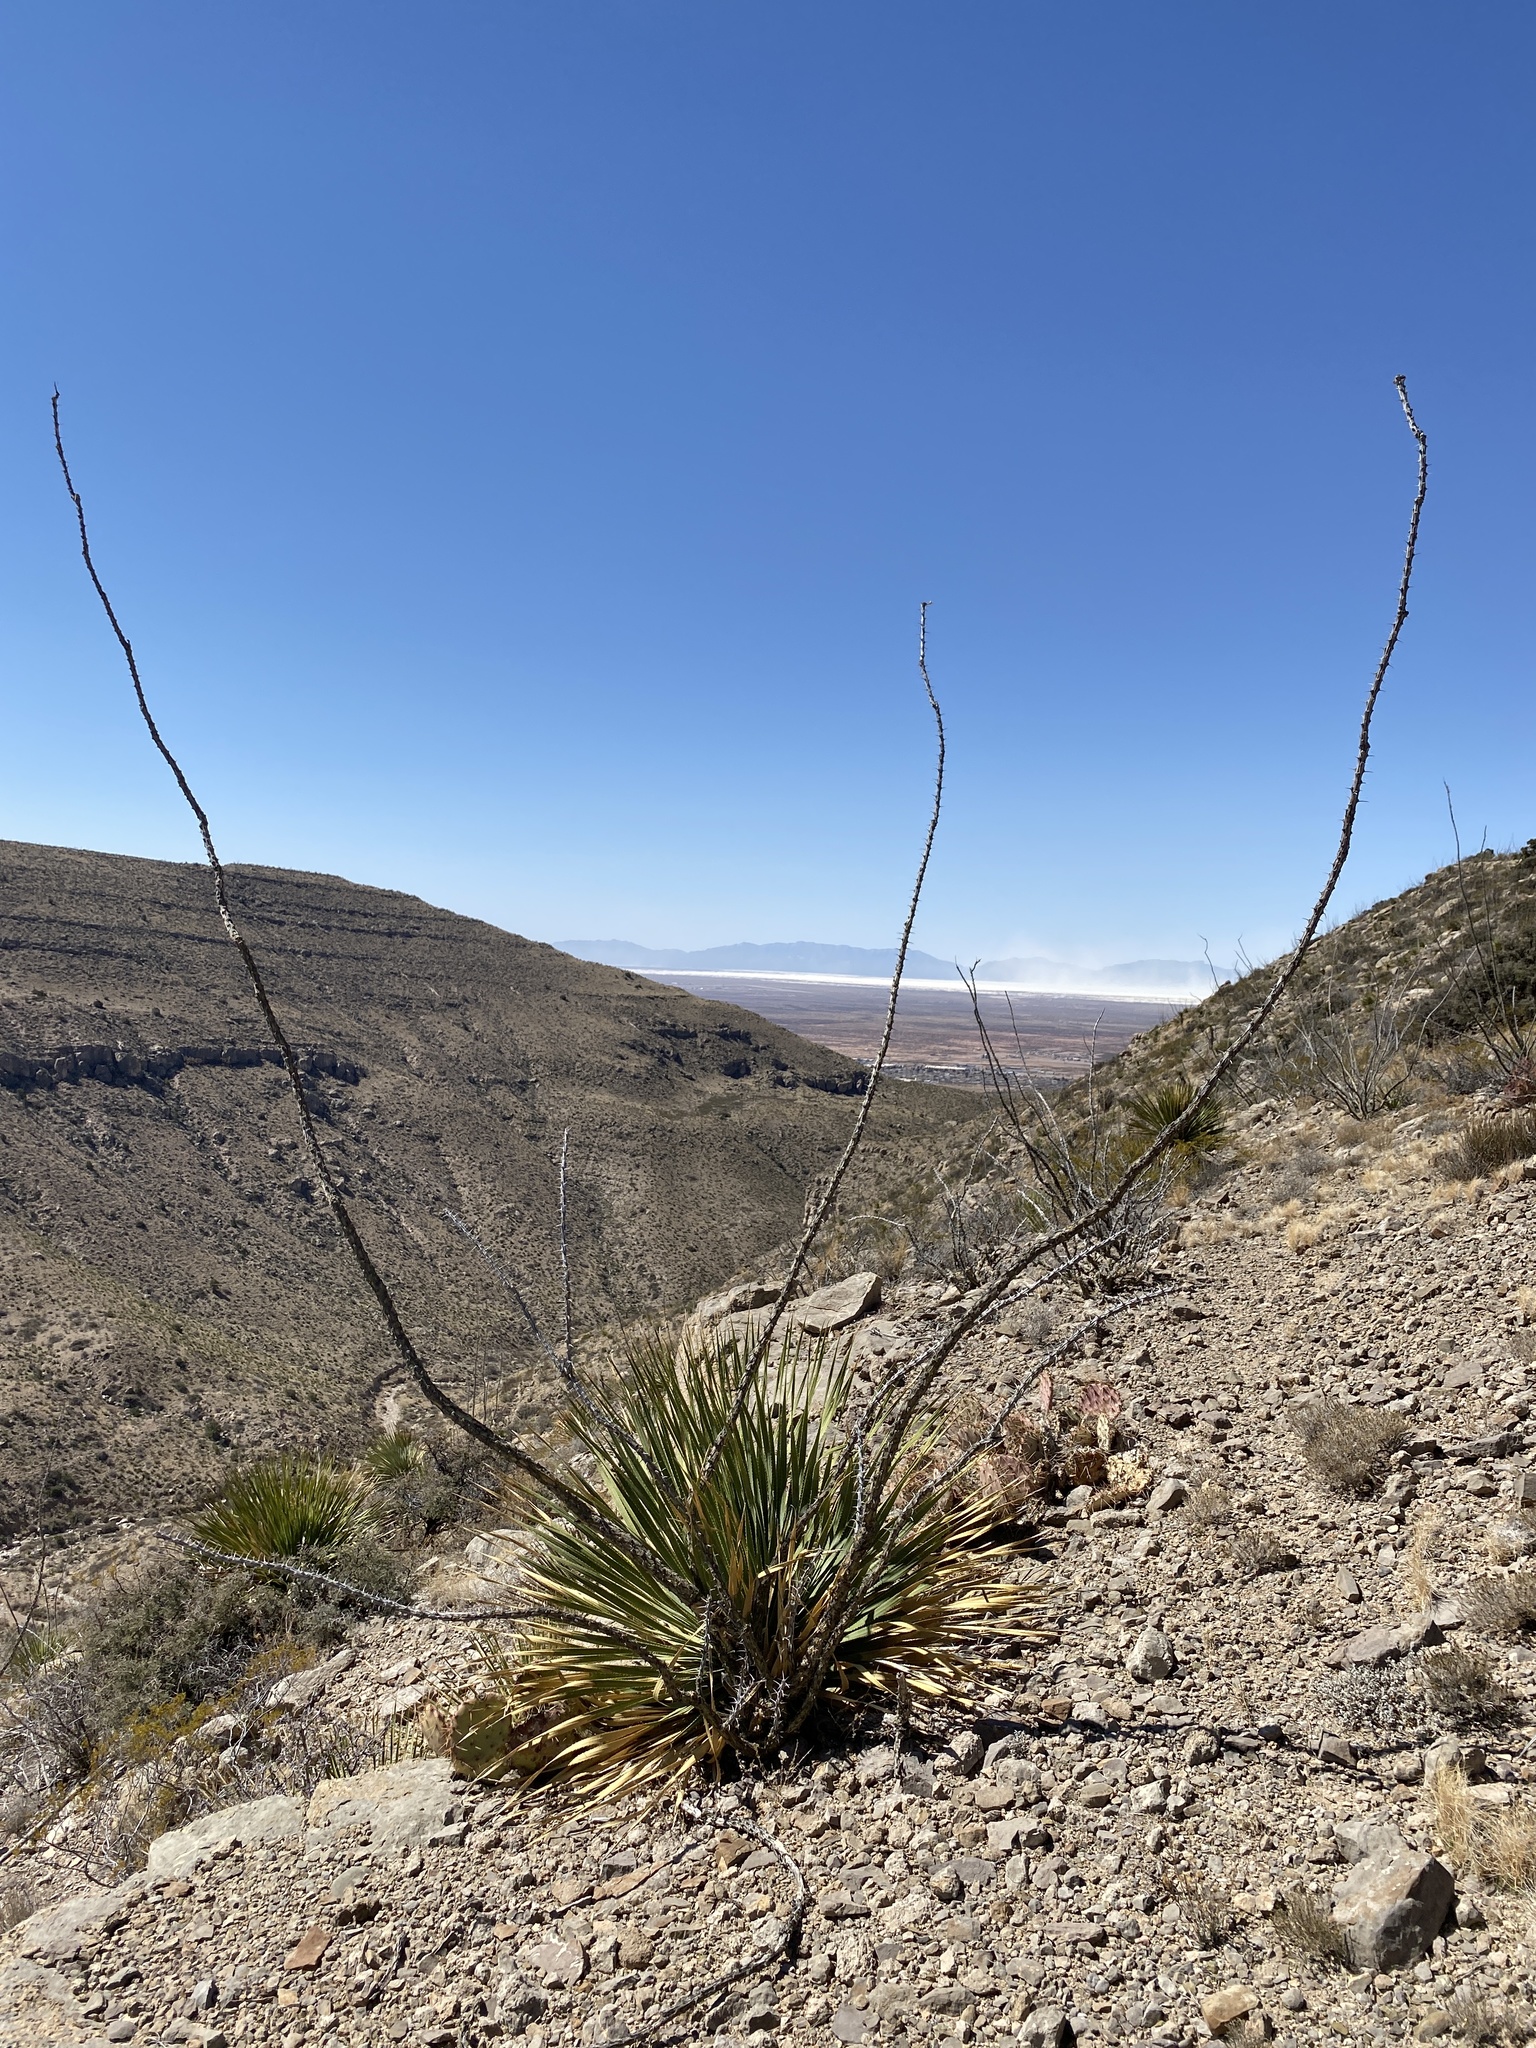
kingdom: Plantae
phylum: Tracheophyta
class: Magnoliopsida
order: Ericales
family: Fouquieriaceae
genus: Fouquieria
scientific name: Fouquieria splendens
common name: Vine-cactus
